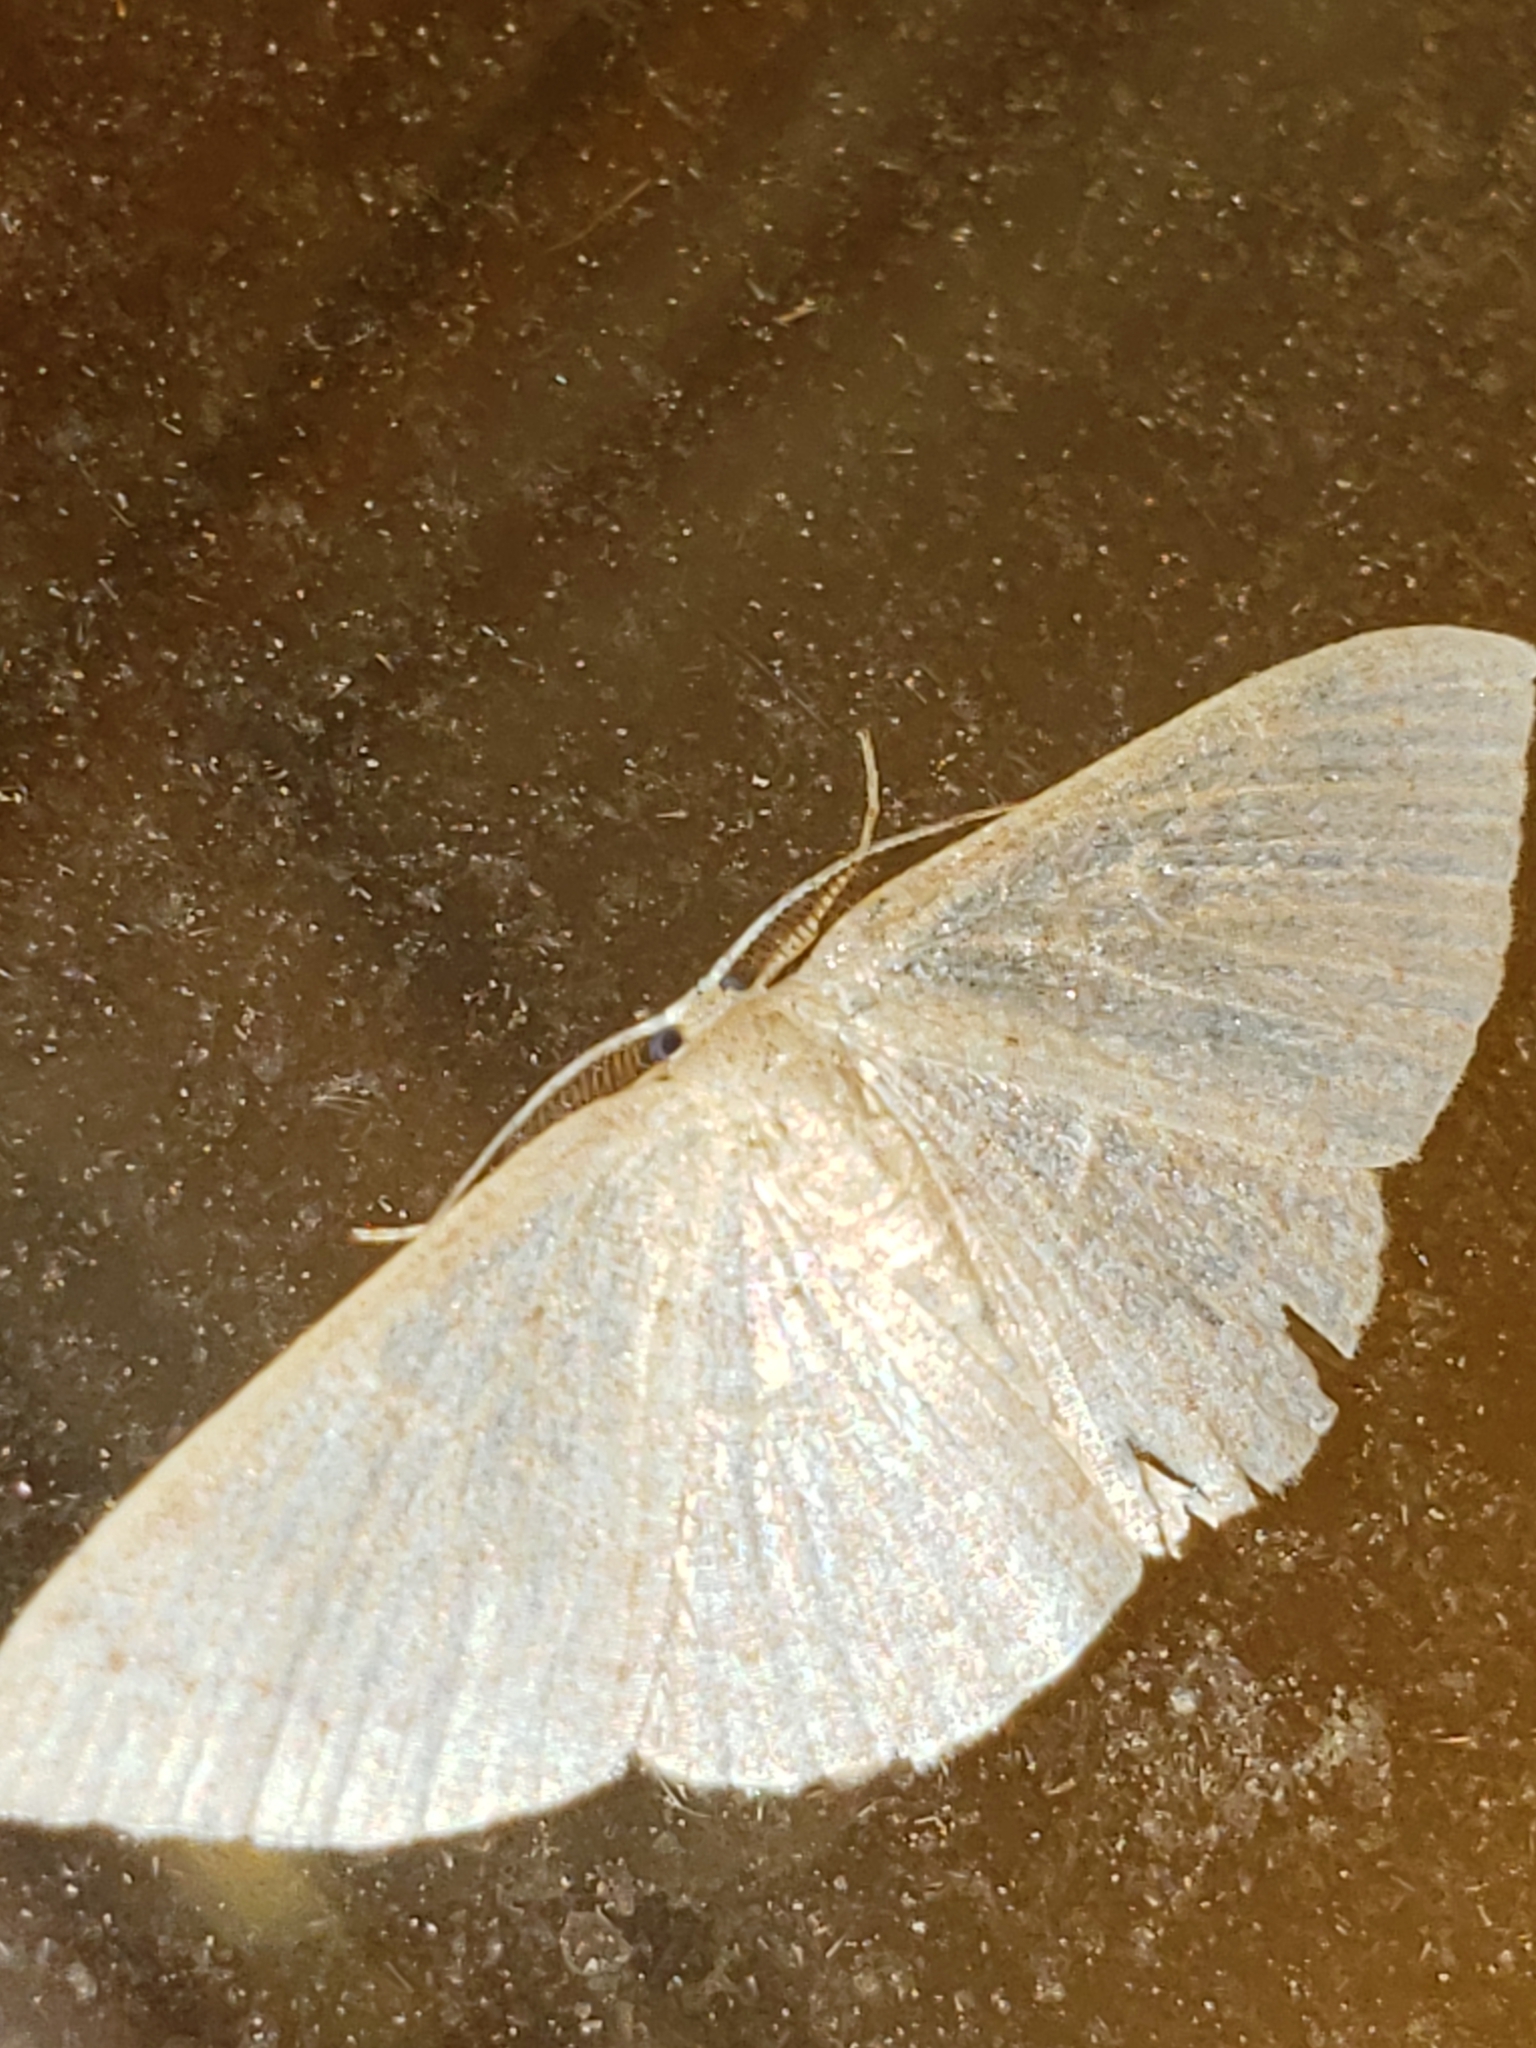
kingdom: Animalia
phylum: Arthropoda
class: Insecta
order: Lepidoptera
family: Geometridae
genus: Pleuroprucha
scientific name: Pleuroprucha insulsaria
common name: Common tan wave
